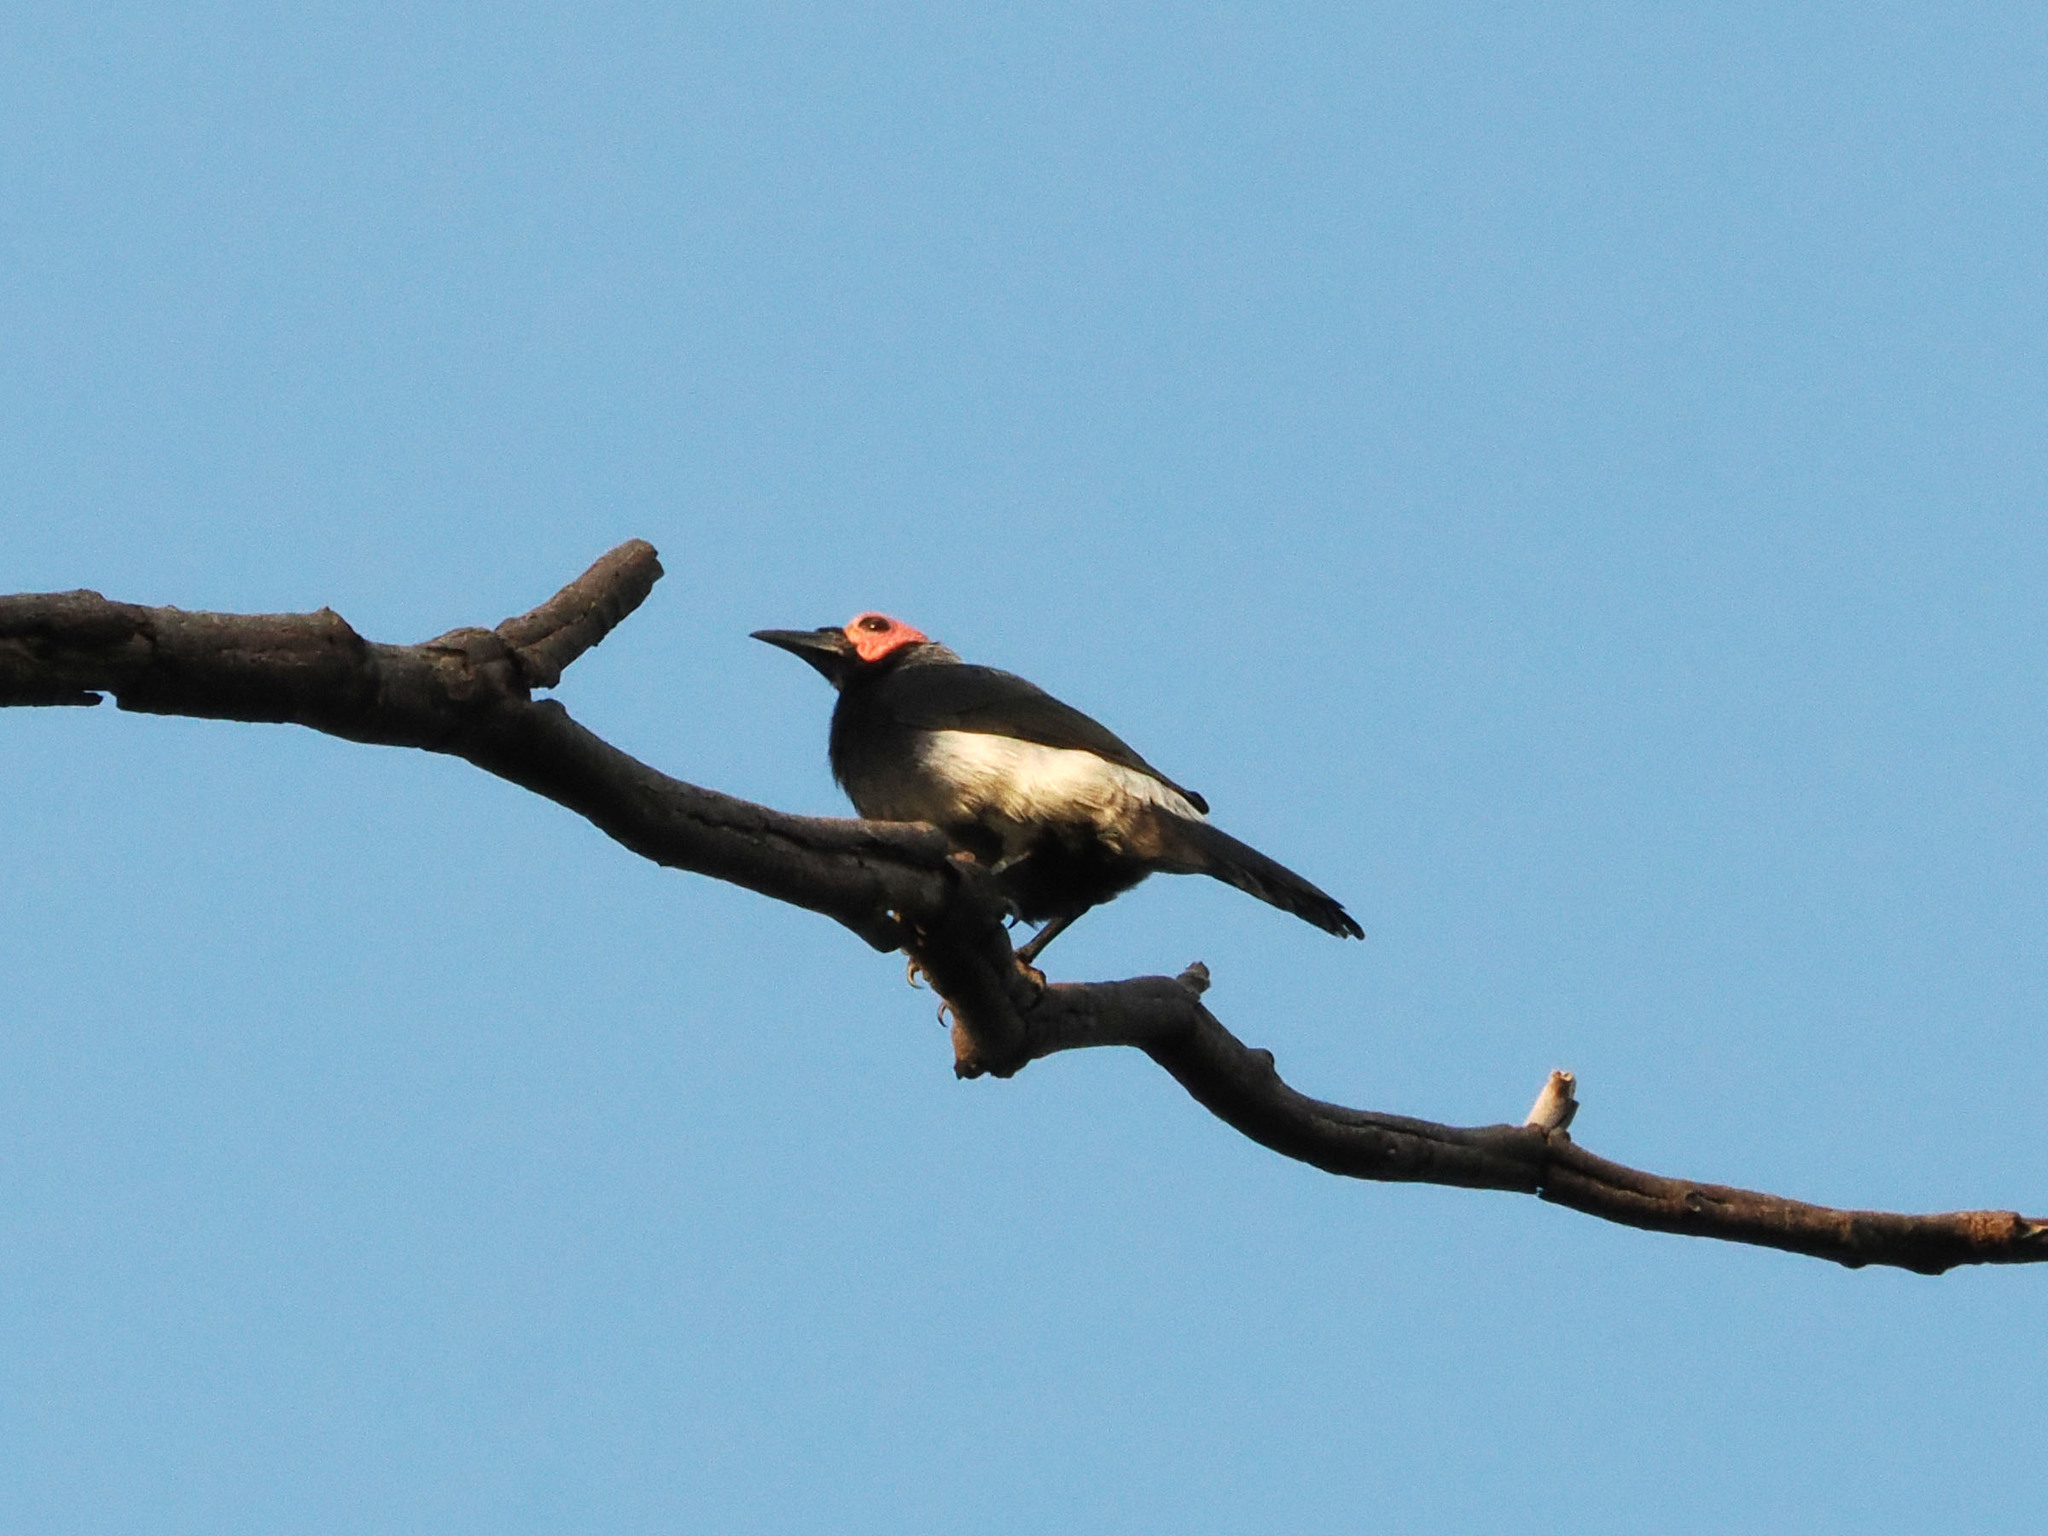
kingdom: Animalia
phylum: Chordata
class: Aves
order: Passeriformes
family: Sturnidae
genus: Sarcops
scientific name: Sarcops calvus
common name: Coleto
